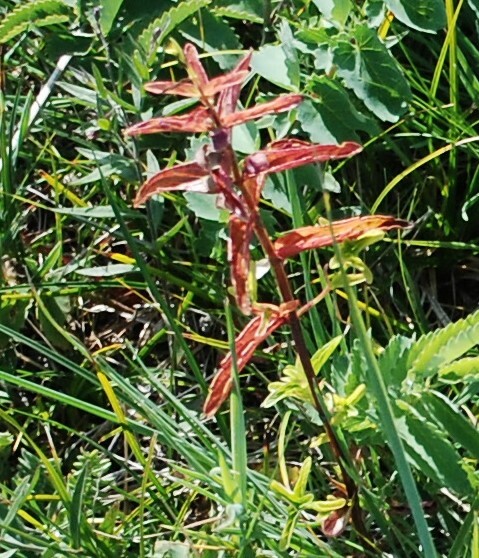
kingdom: Plantae
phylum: Tracheophyta
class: Magnoliopsida
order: Lamiales
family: Lamiaceae
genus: Scutellaria
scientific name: Scutellaria scordiifolia
